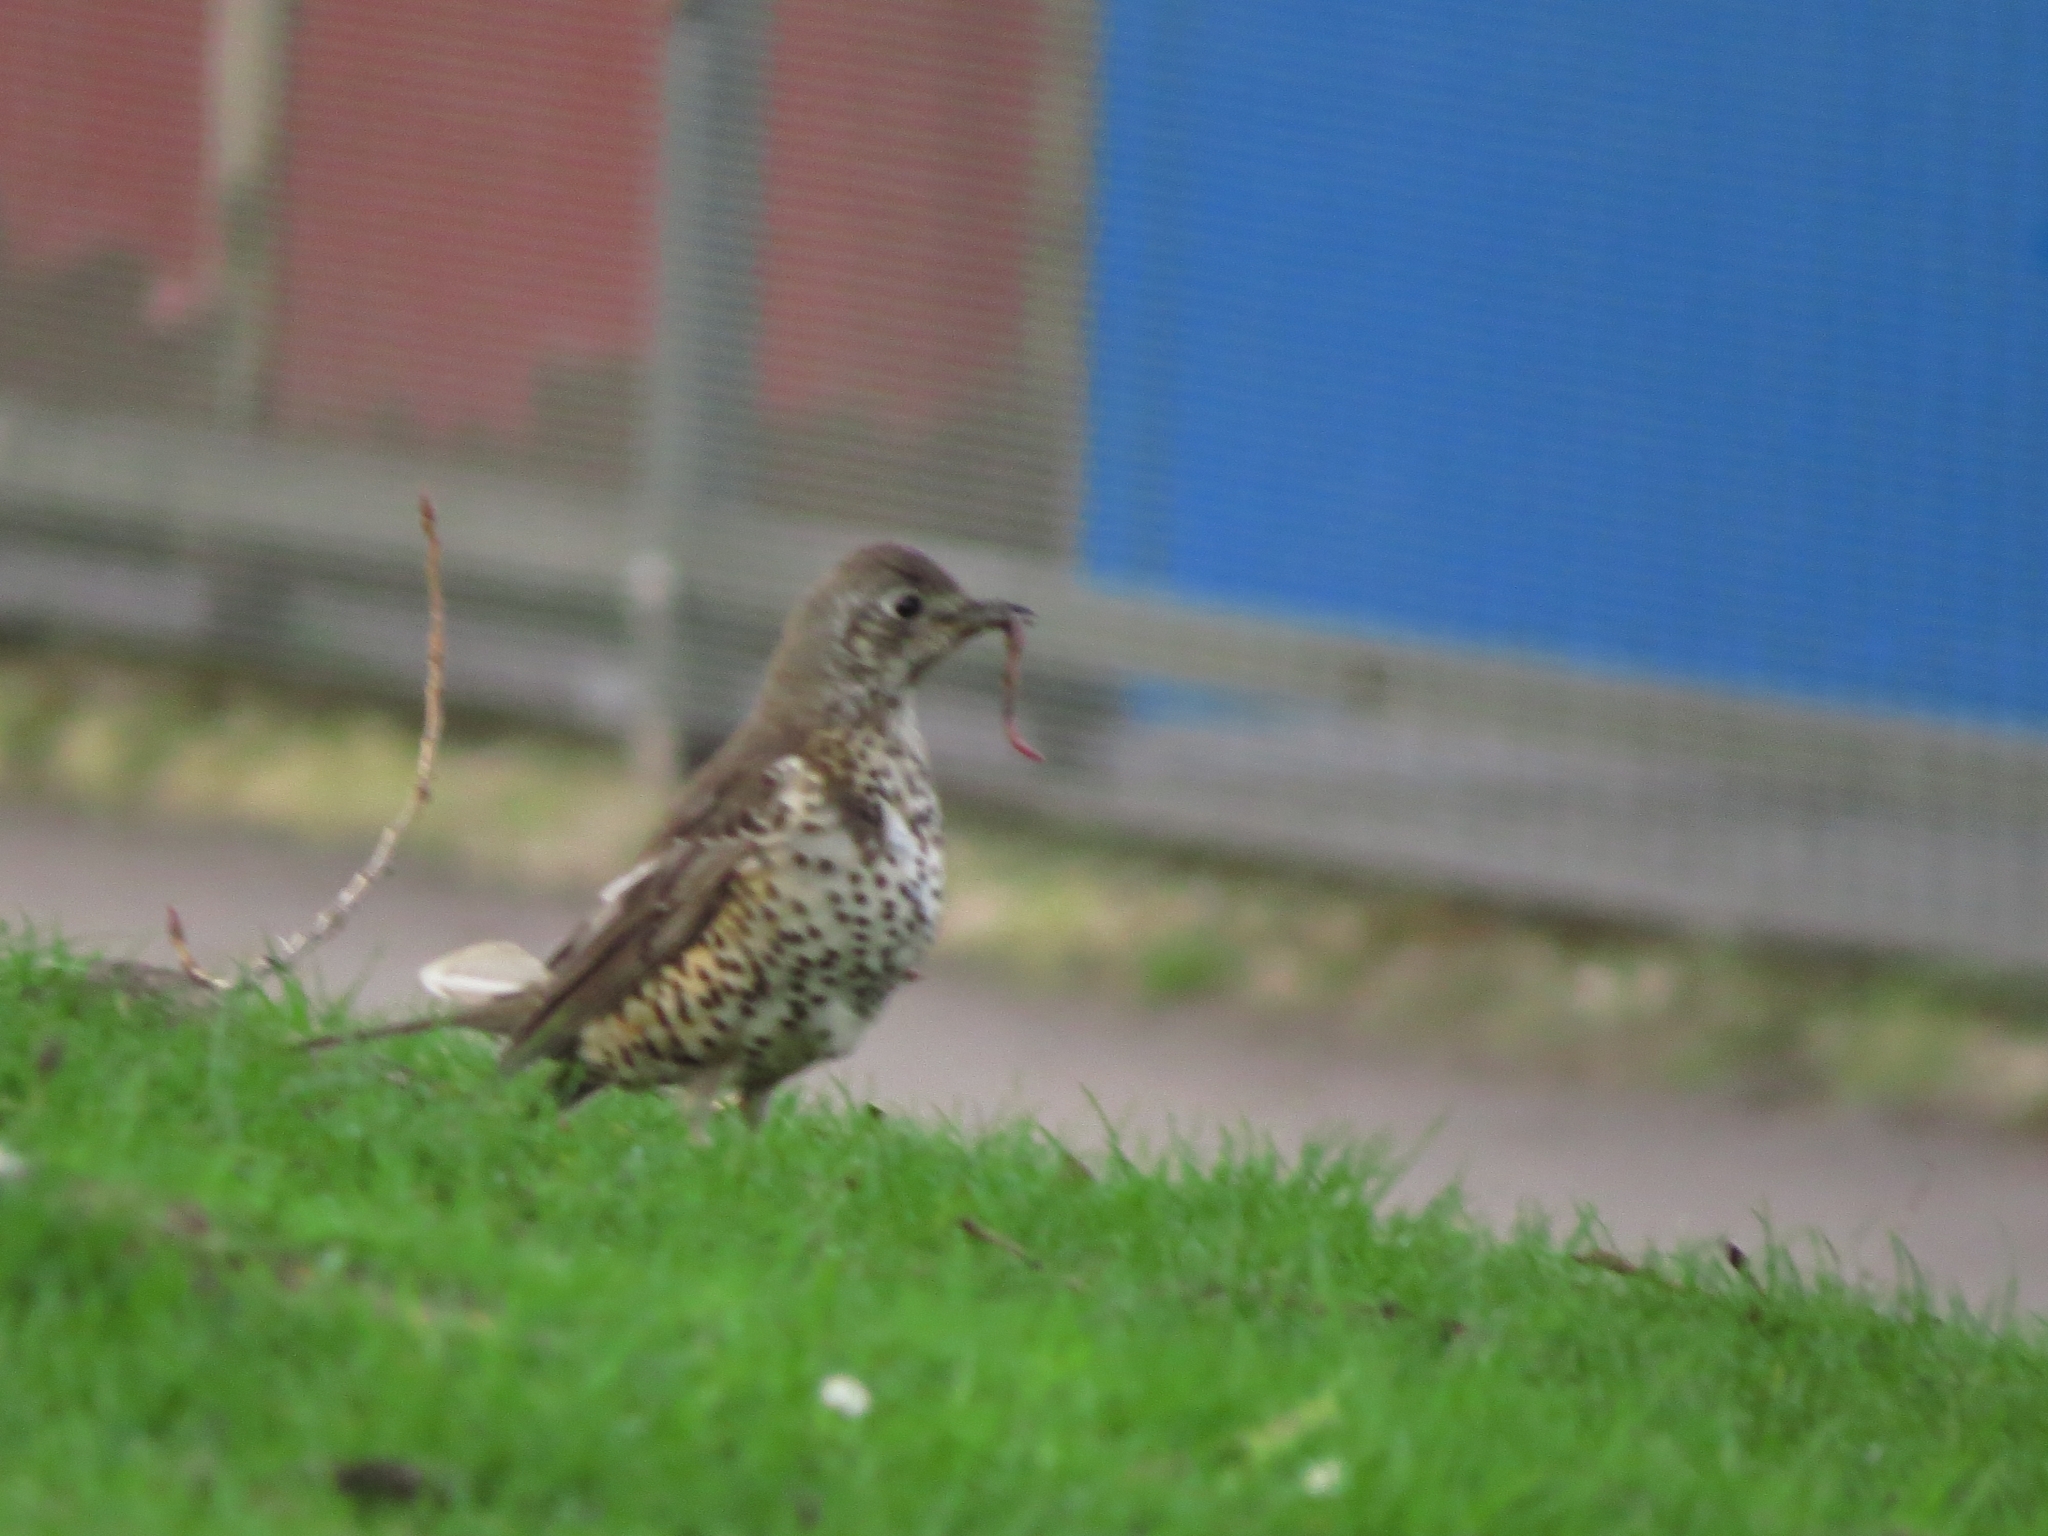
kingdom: Animalia
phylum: Chordata
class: Aves
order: Passeriformes
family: Turdidae
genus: Turdus
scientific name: Turdus viscivorus
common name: Mistle thrush
